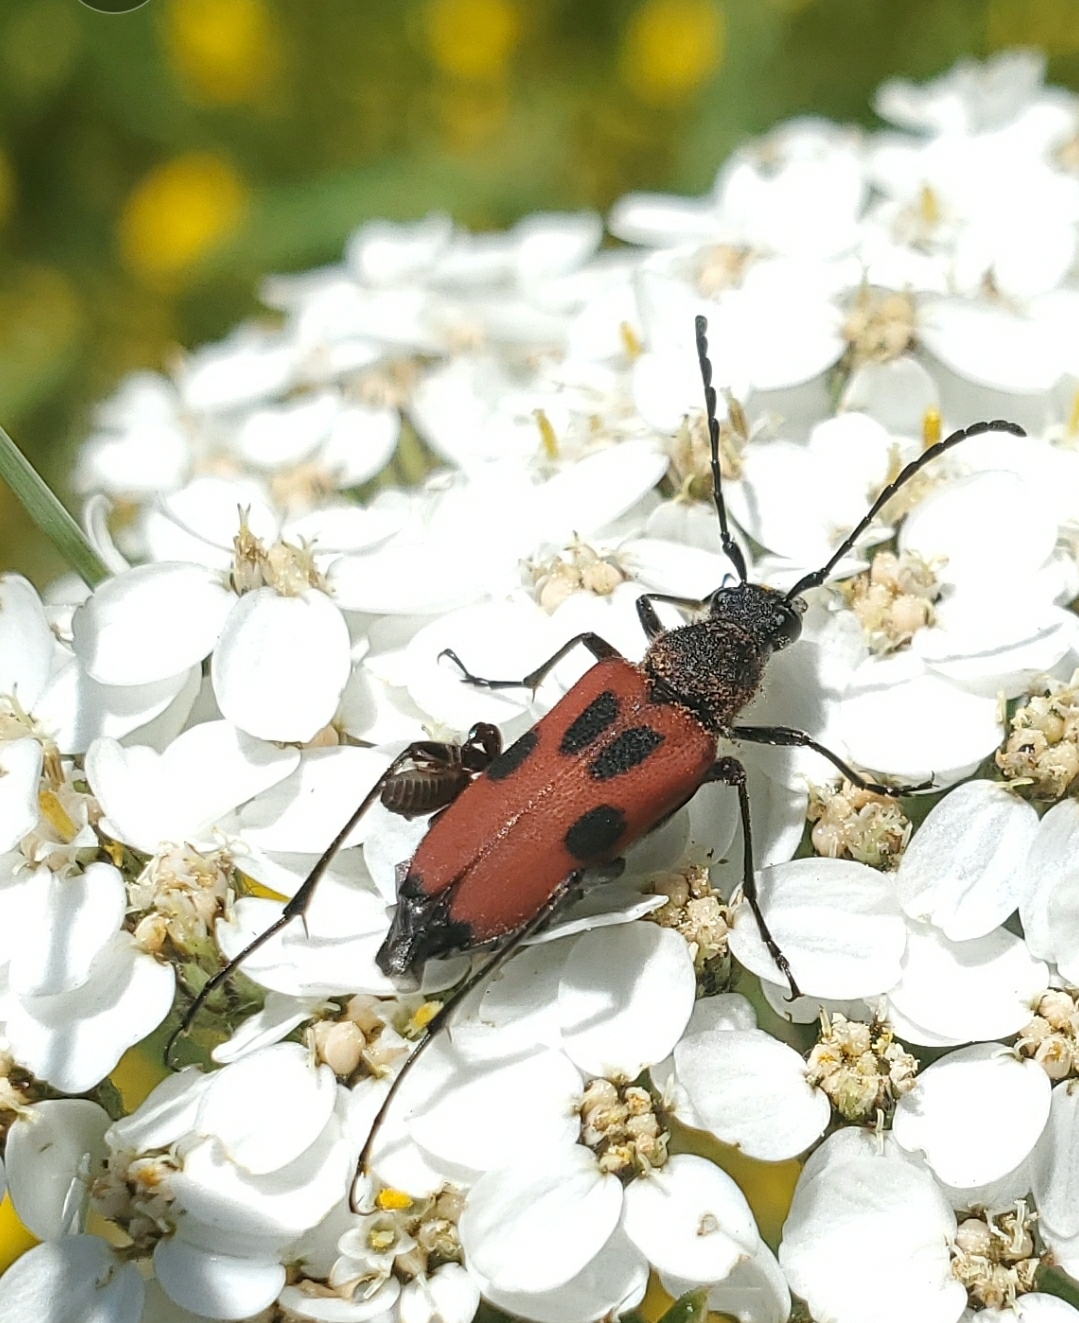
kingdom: Animalia
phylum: Arthropoda
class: Insecta
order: Coleoptera
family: Cerambycidae
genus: Anastrangalia
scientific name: Anastrangalia laetifica
